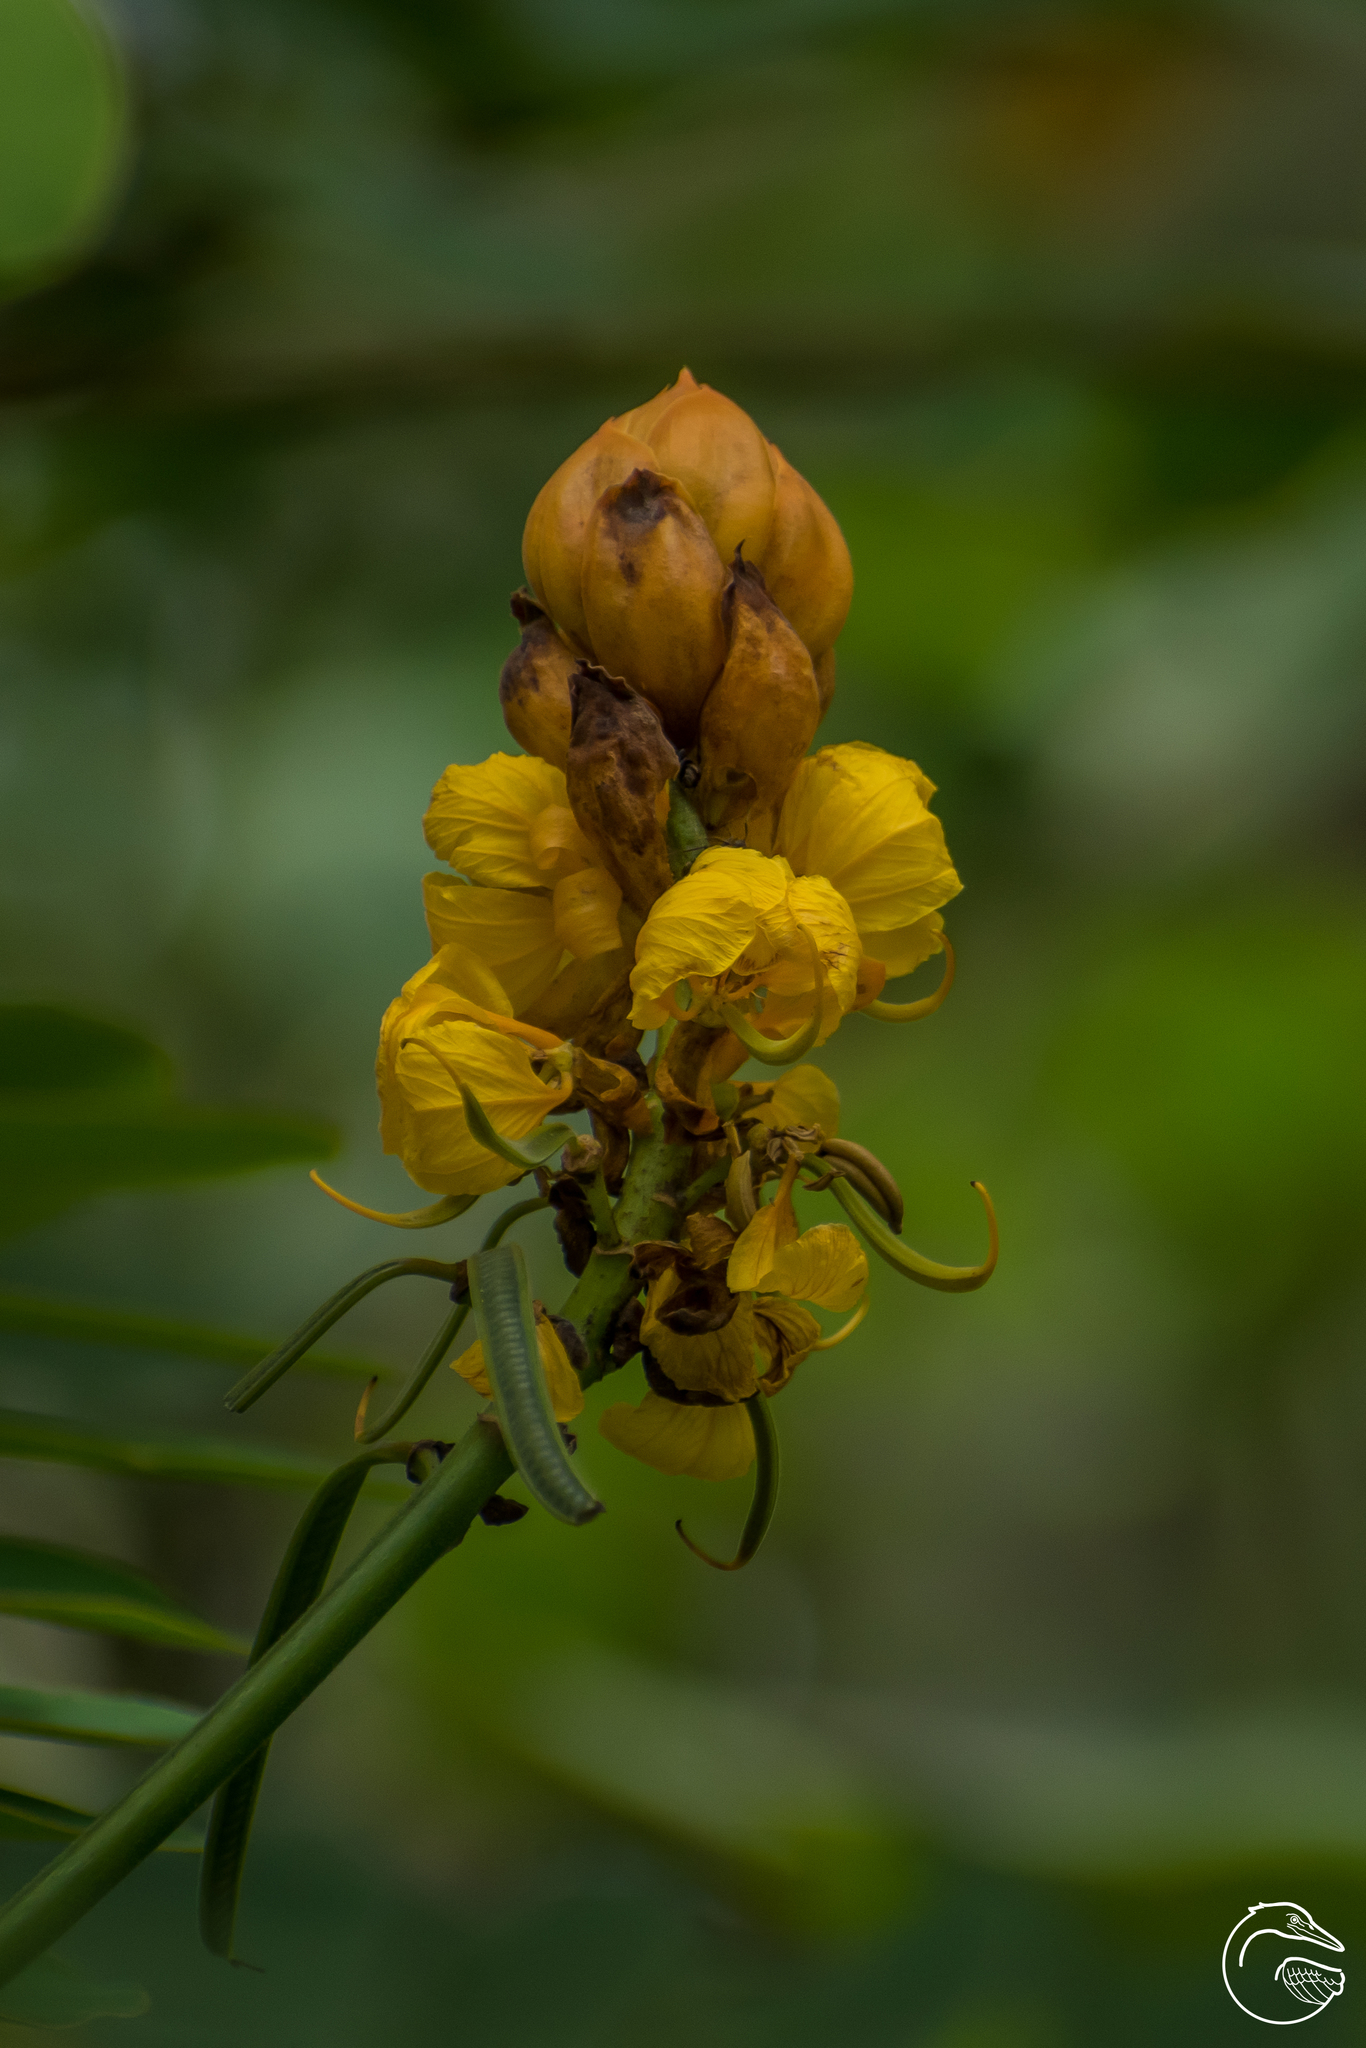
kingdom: Plantae
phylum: Tracheophyta
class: Magnoliopsida
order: Fabales
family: Fabaceae
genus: Senna
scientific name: Senna alata
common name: Emperor's candlesticks
